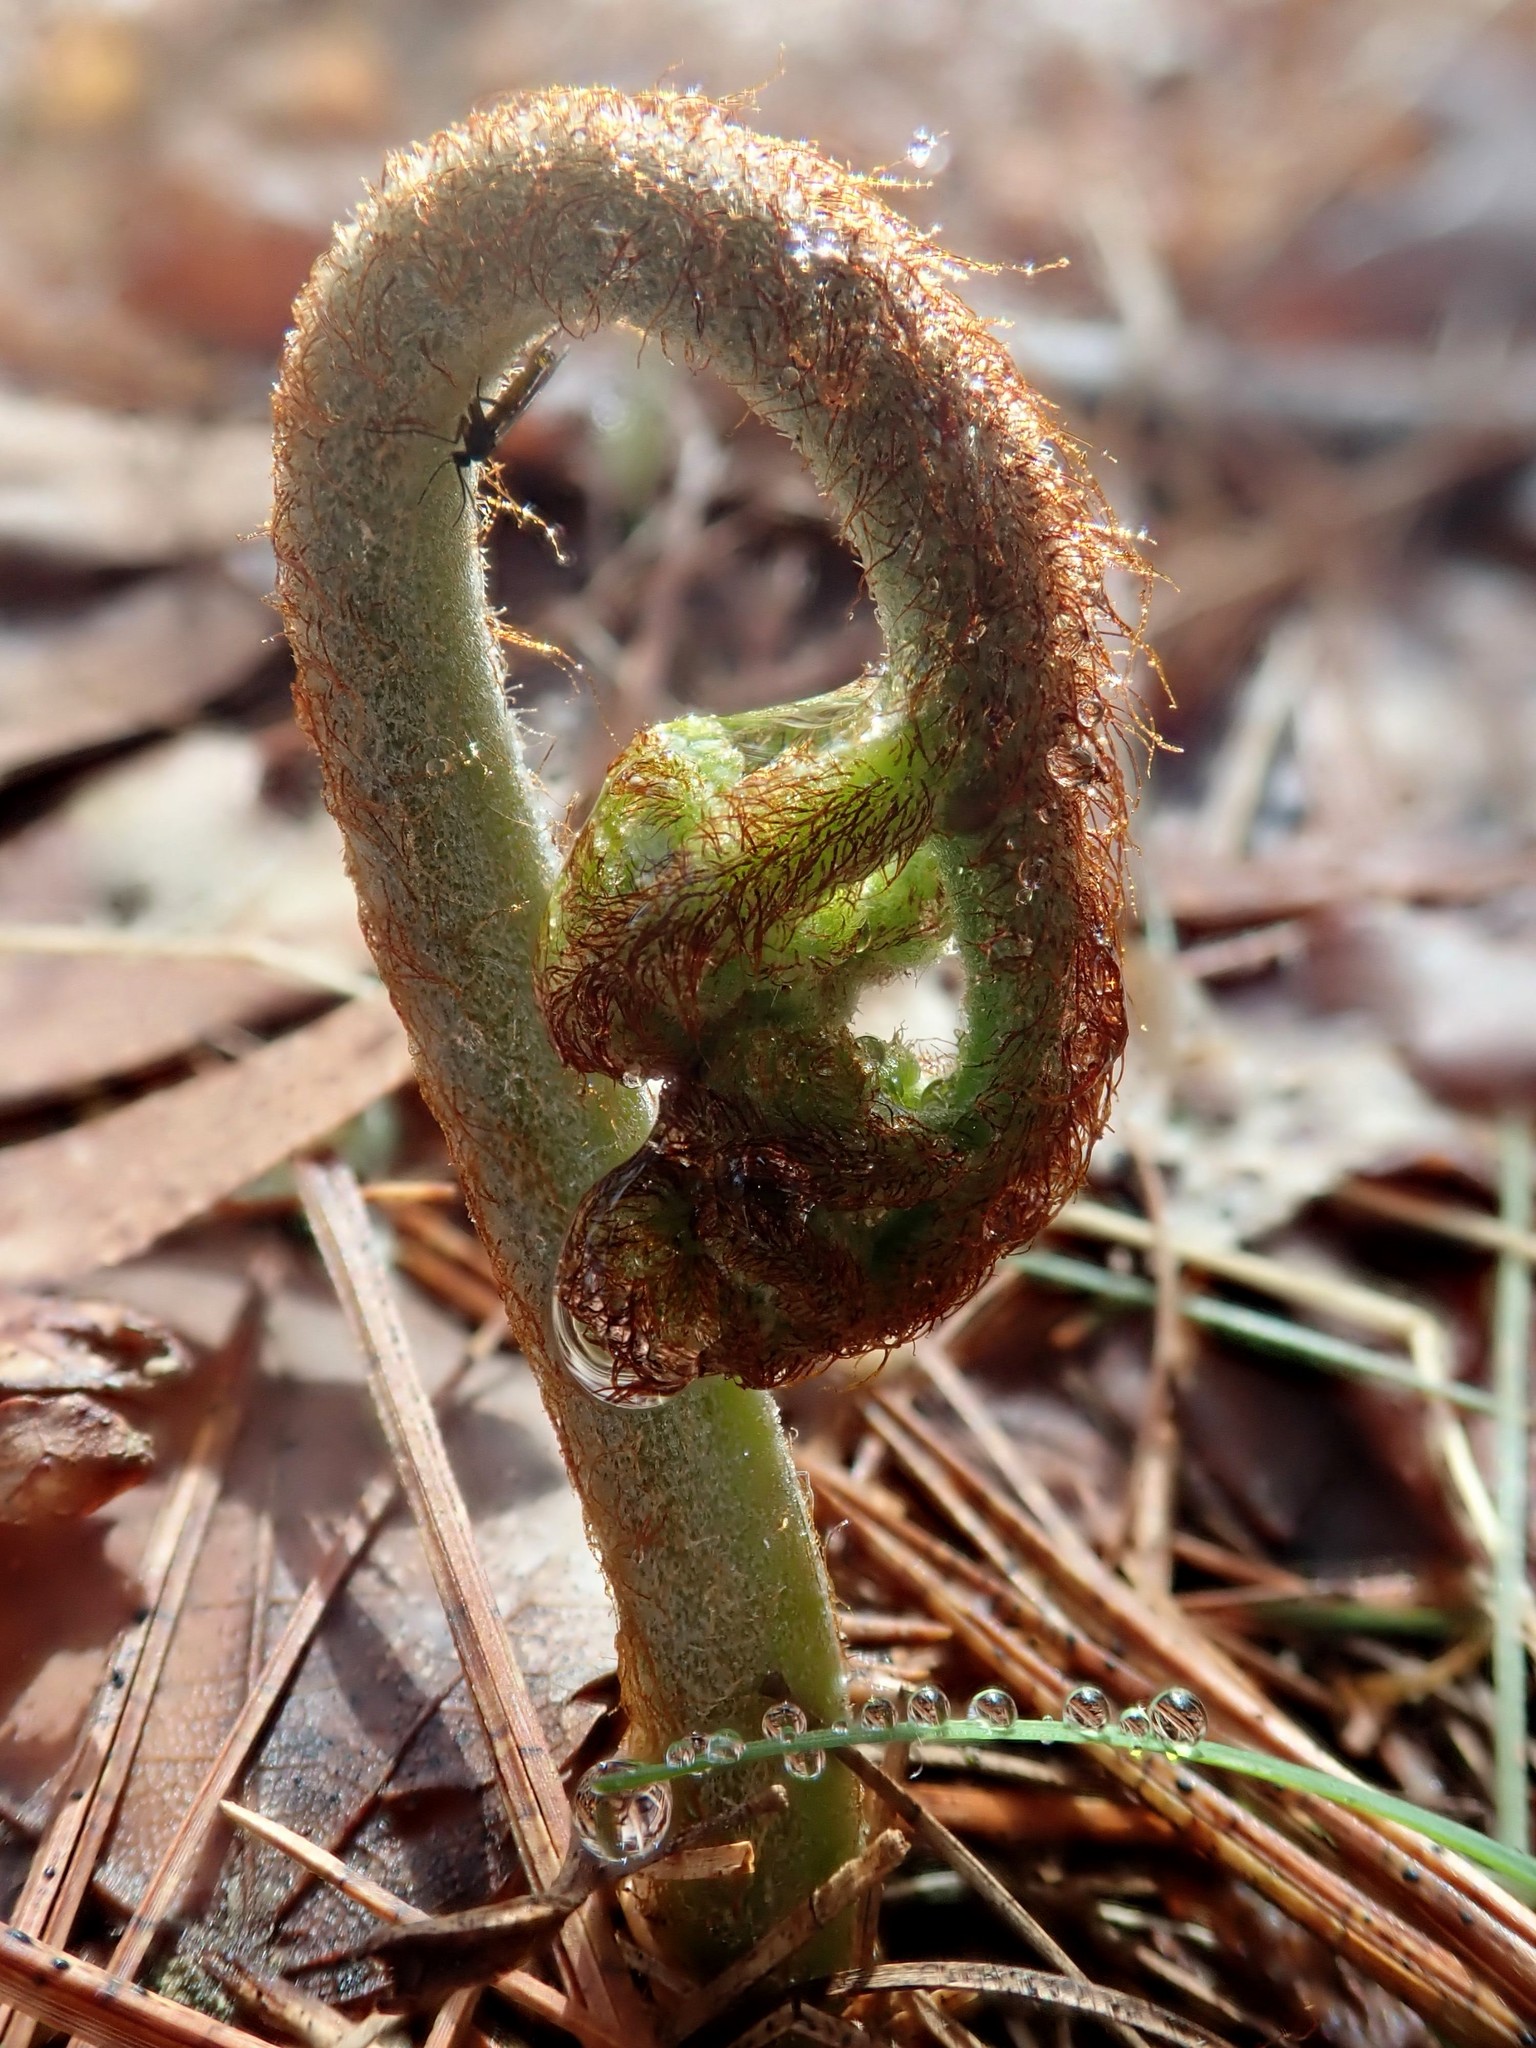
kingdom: Plantae
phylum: Tracheophyta
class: Polypodiopsida
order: Polypodiales
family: Dennstaedtiaceae
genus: Pteridium
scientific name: Pteridium aquilinum
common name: Bracken
